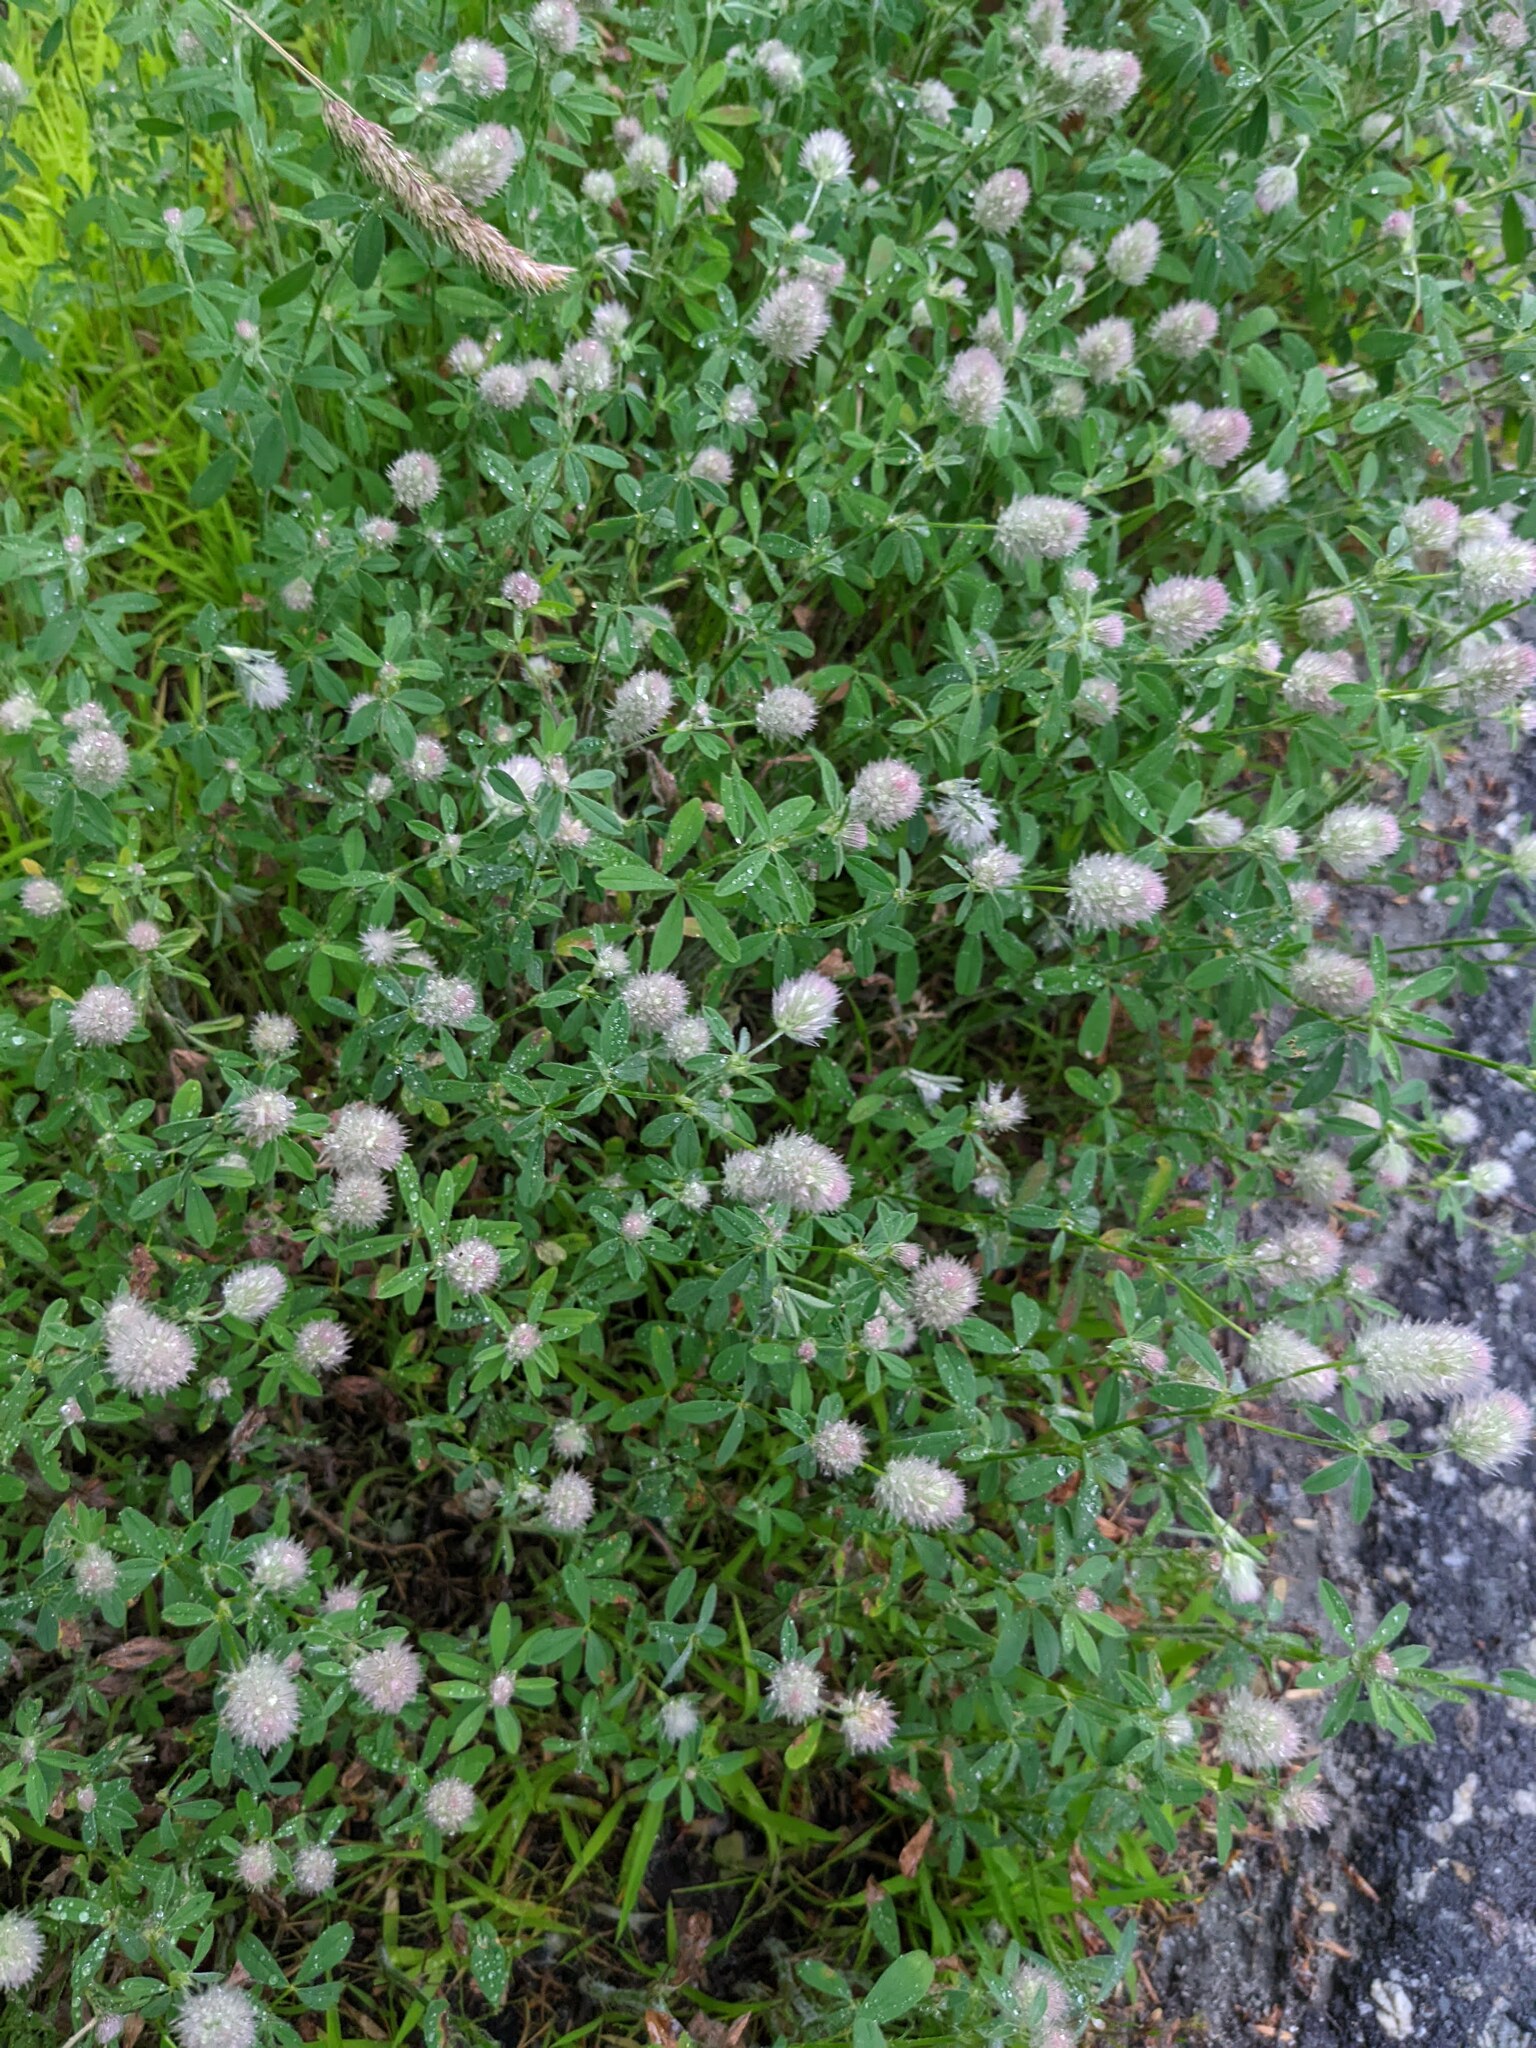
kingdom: Plantae
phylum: Tracheophyta
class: Magnoliopsida
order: Fabales
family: Fabaceae
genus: Trifolium
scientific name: Trifolium arvense
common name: Hare's-foot clover
